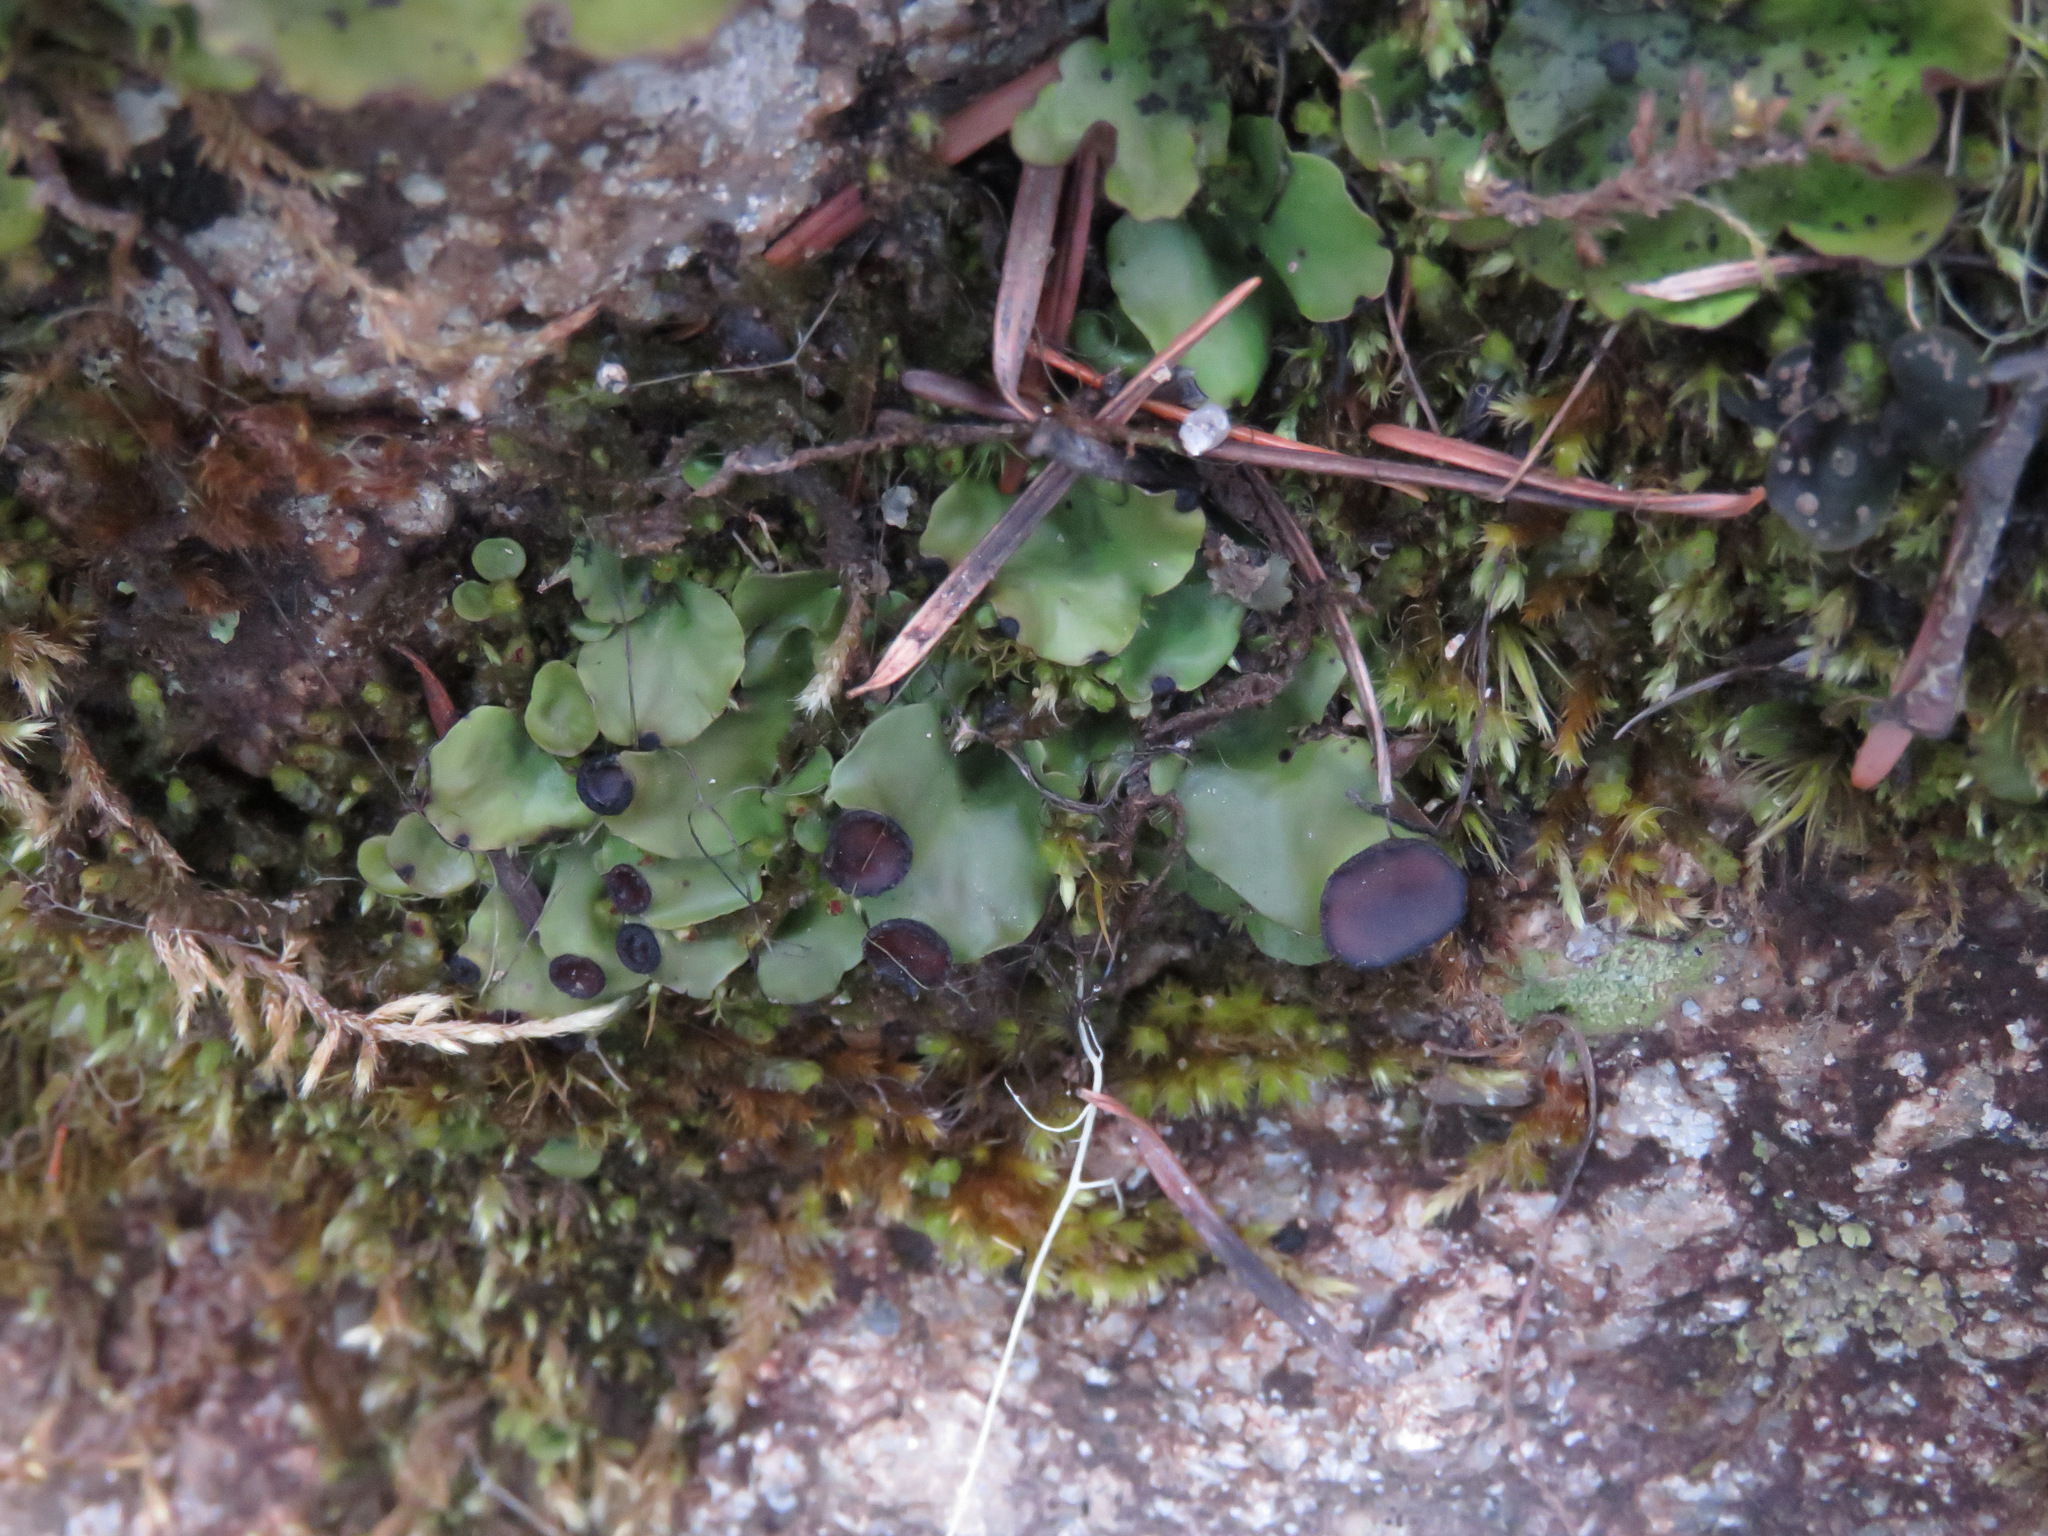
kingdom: Fungi
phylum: Ascomycota
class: Lecanoromycetes
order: Peltigerales
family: Peltigeraceae
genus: Peltigera
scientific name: Peltigera venosa
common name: Pixie gowns lichen
